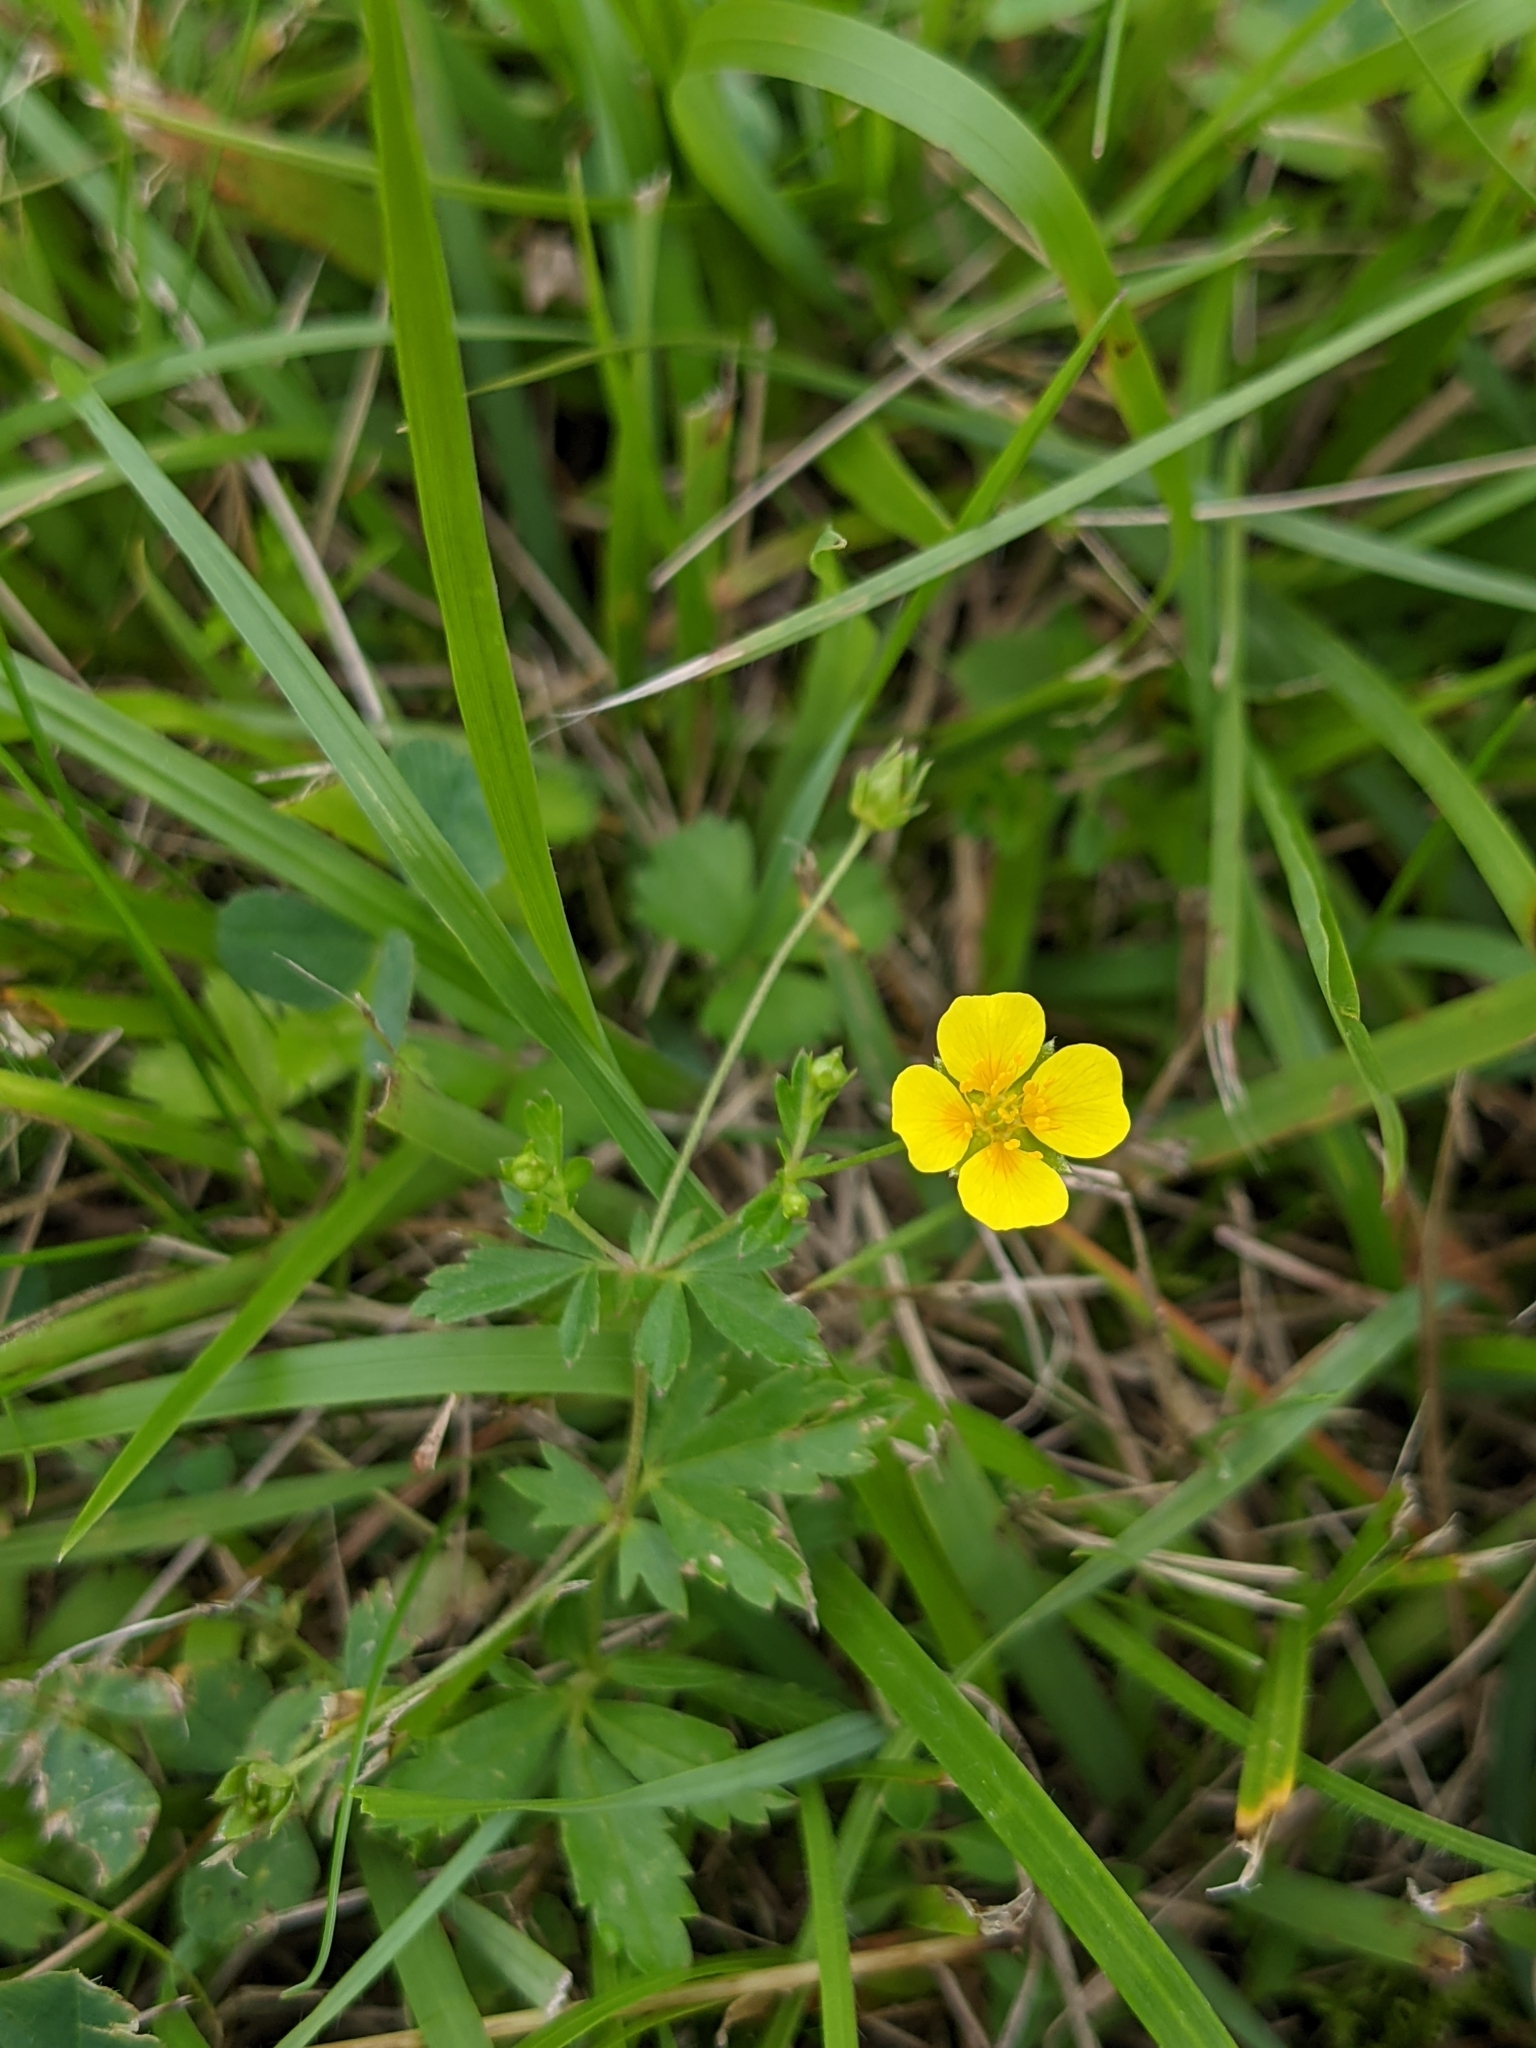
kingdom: Plantae
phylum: Tracheophyta
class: Magnoliopsida
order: Rosales
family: Rosaceae
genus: Potentilla
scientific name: Potentilla erecta
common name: Tormentil
